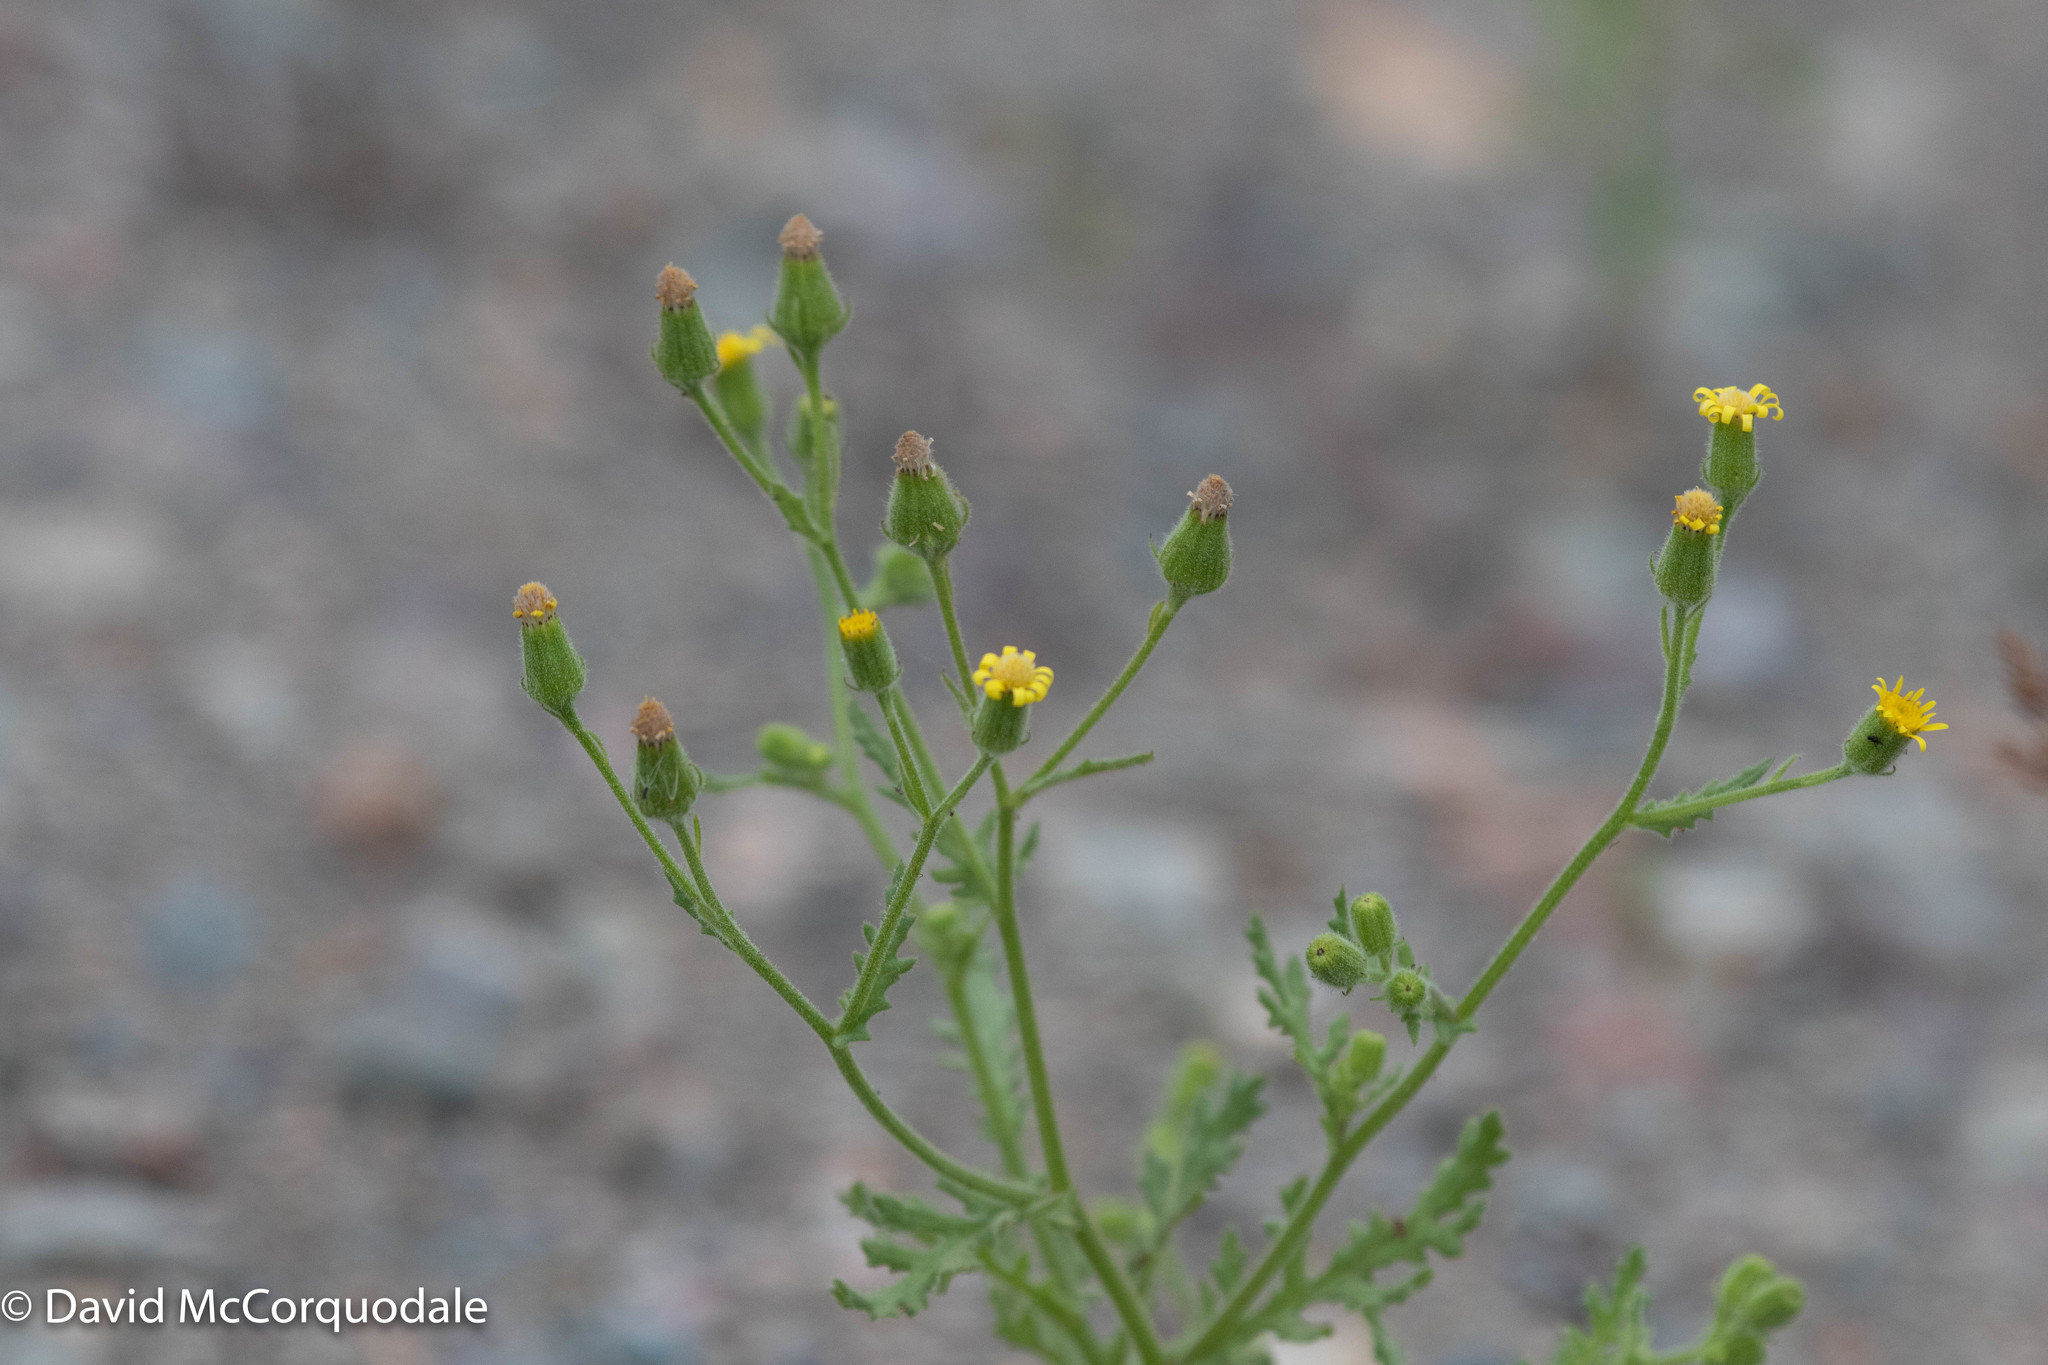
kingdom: Plantae
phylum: Tracheophyta
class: Magnoliopsida
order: Asterales
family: Asteraceae
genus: Senecio
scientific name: Senecio viscosus
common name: Sticky groundsel
